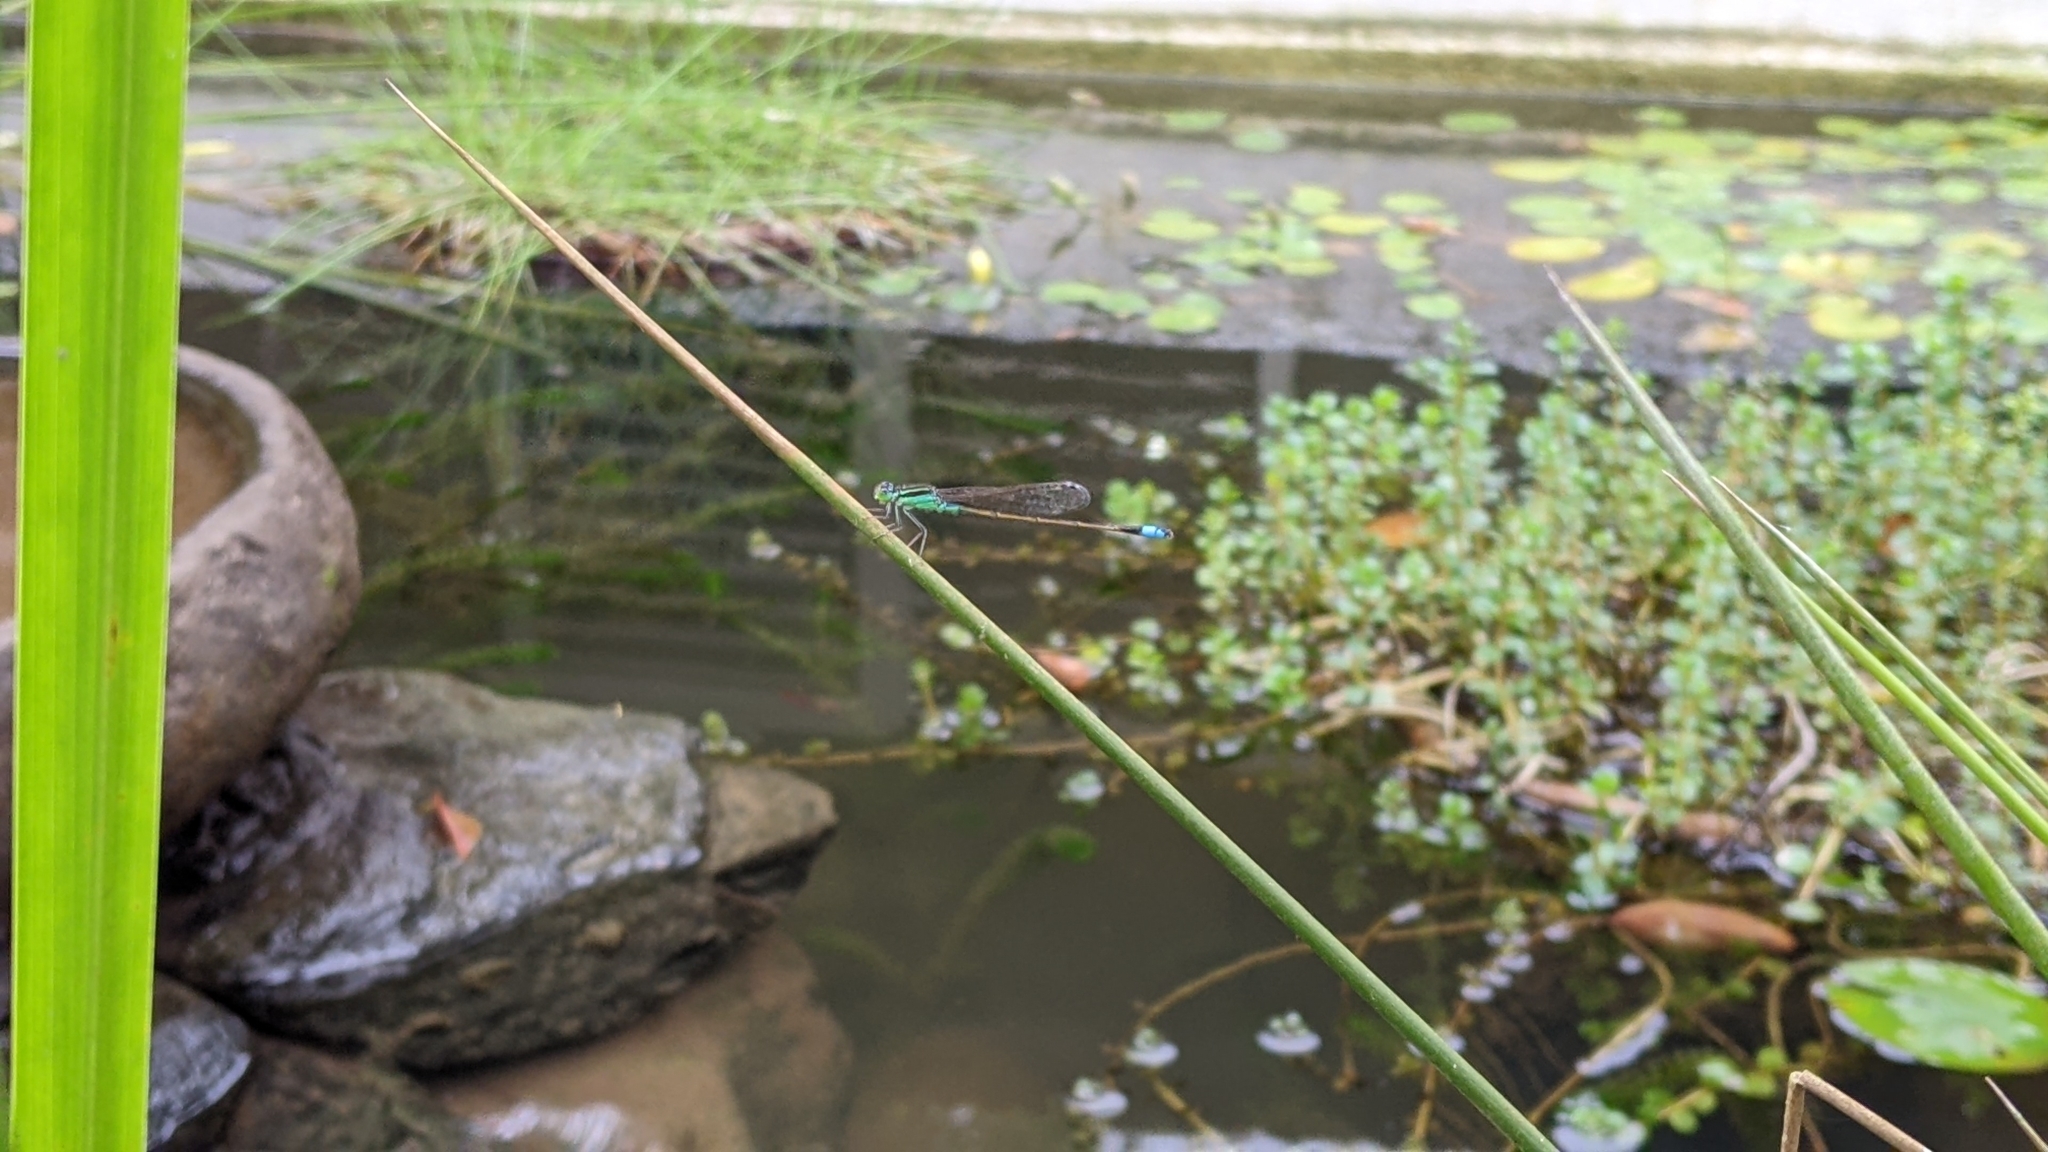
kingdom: Animalia
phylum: Arthropoda
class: Insecta
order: Odonata
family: Coenagrionidae
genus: Ischnura
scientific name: Ischnura senegalensis
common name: Tropical bluetail
